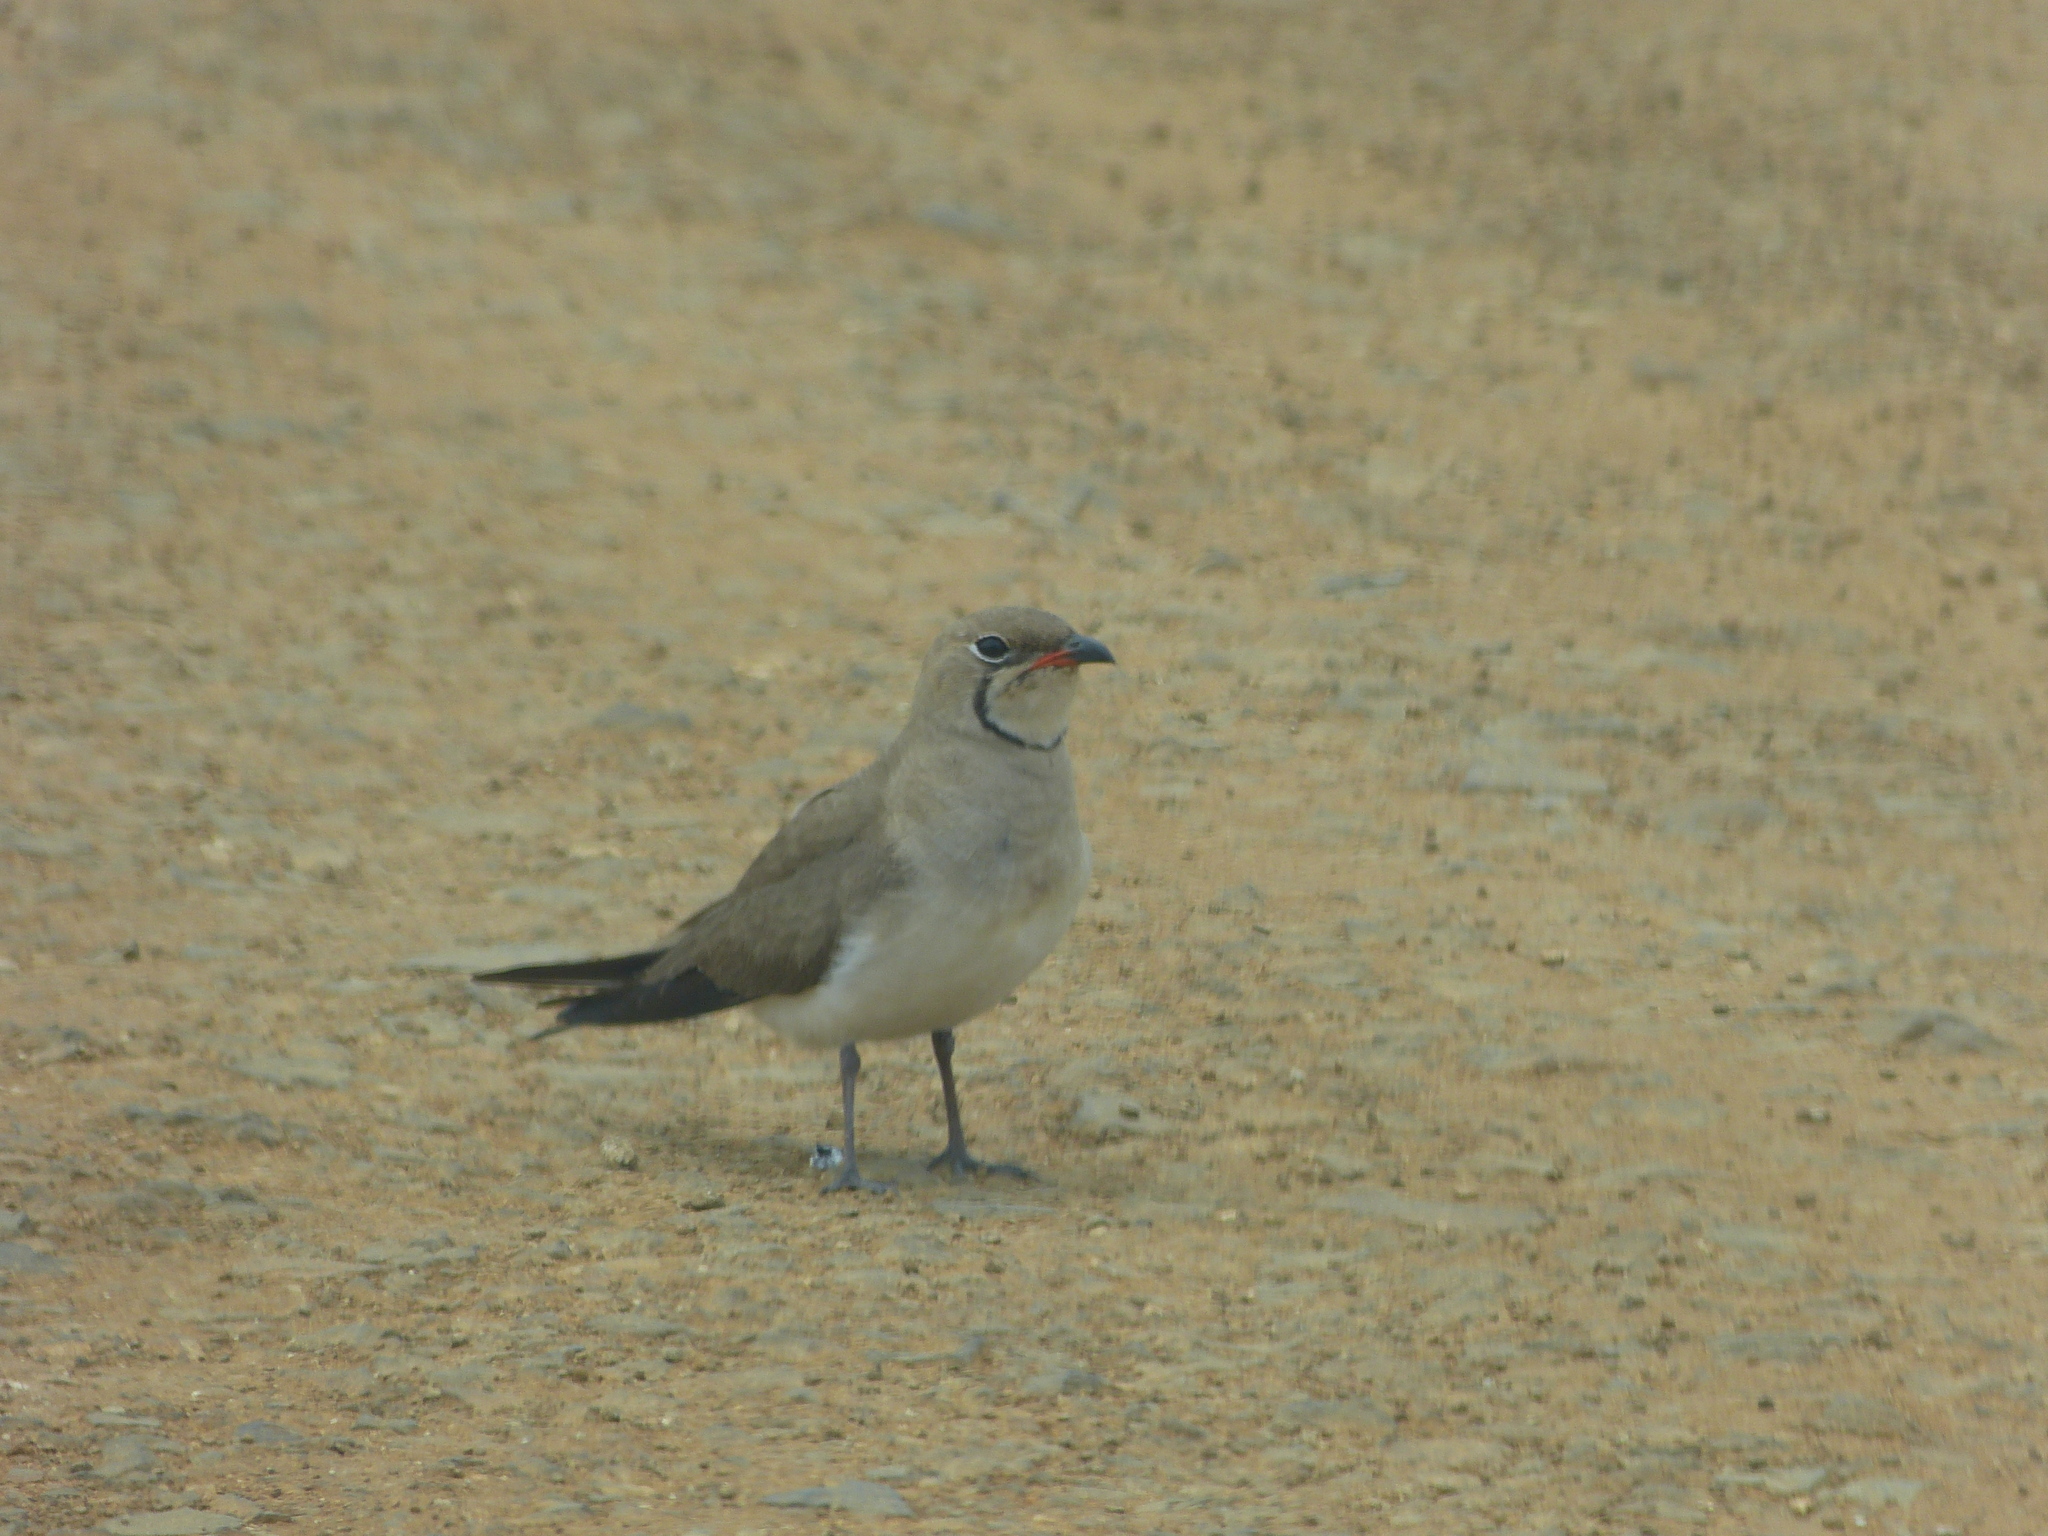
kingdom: Animalia
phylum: Chordata
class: Aves
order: Charadriiformes
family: Glareolidae
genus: Glareola
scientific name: Glareola pratincola
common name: Collared pratincole
